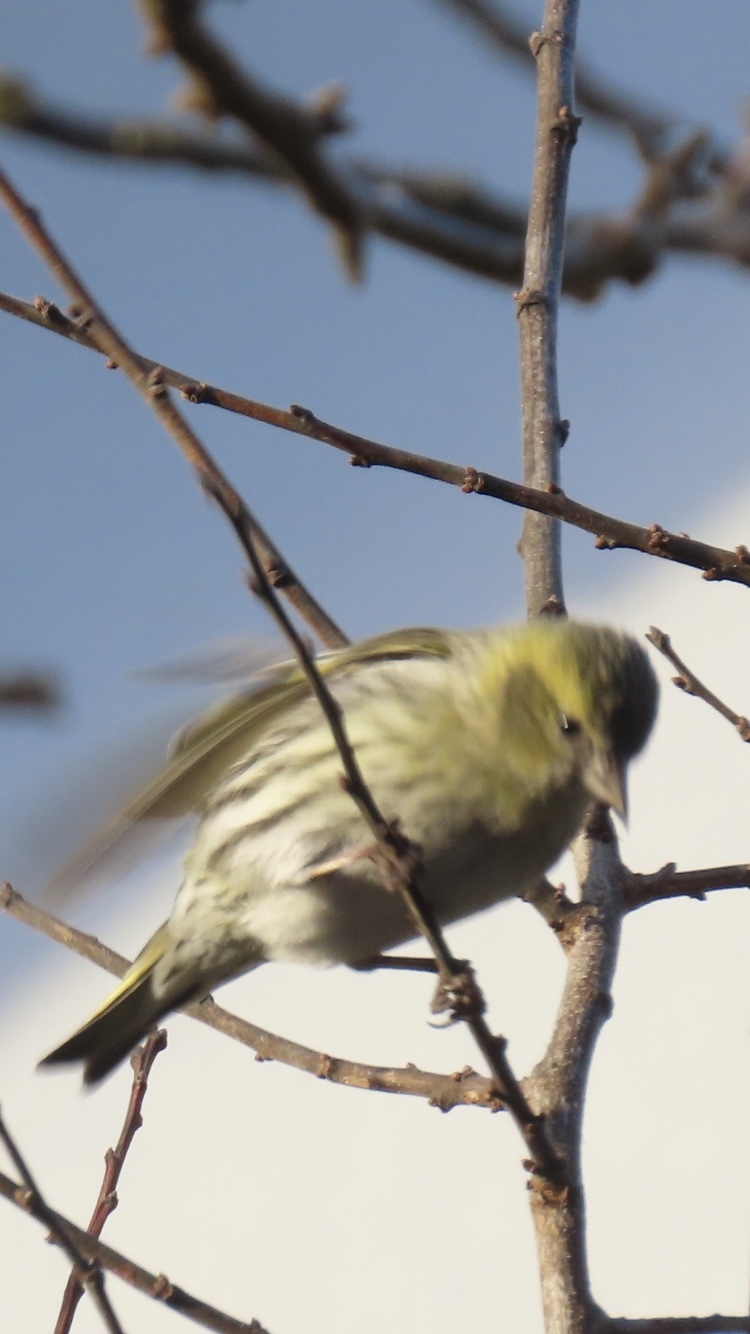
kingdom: Animalia
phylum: Chordata
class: Aves
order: Passeriformes
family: Fringillidae
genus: Spinus
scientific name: Spinus spinus
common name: Eurasian siskin
